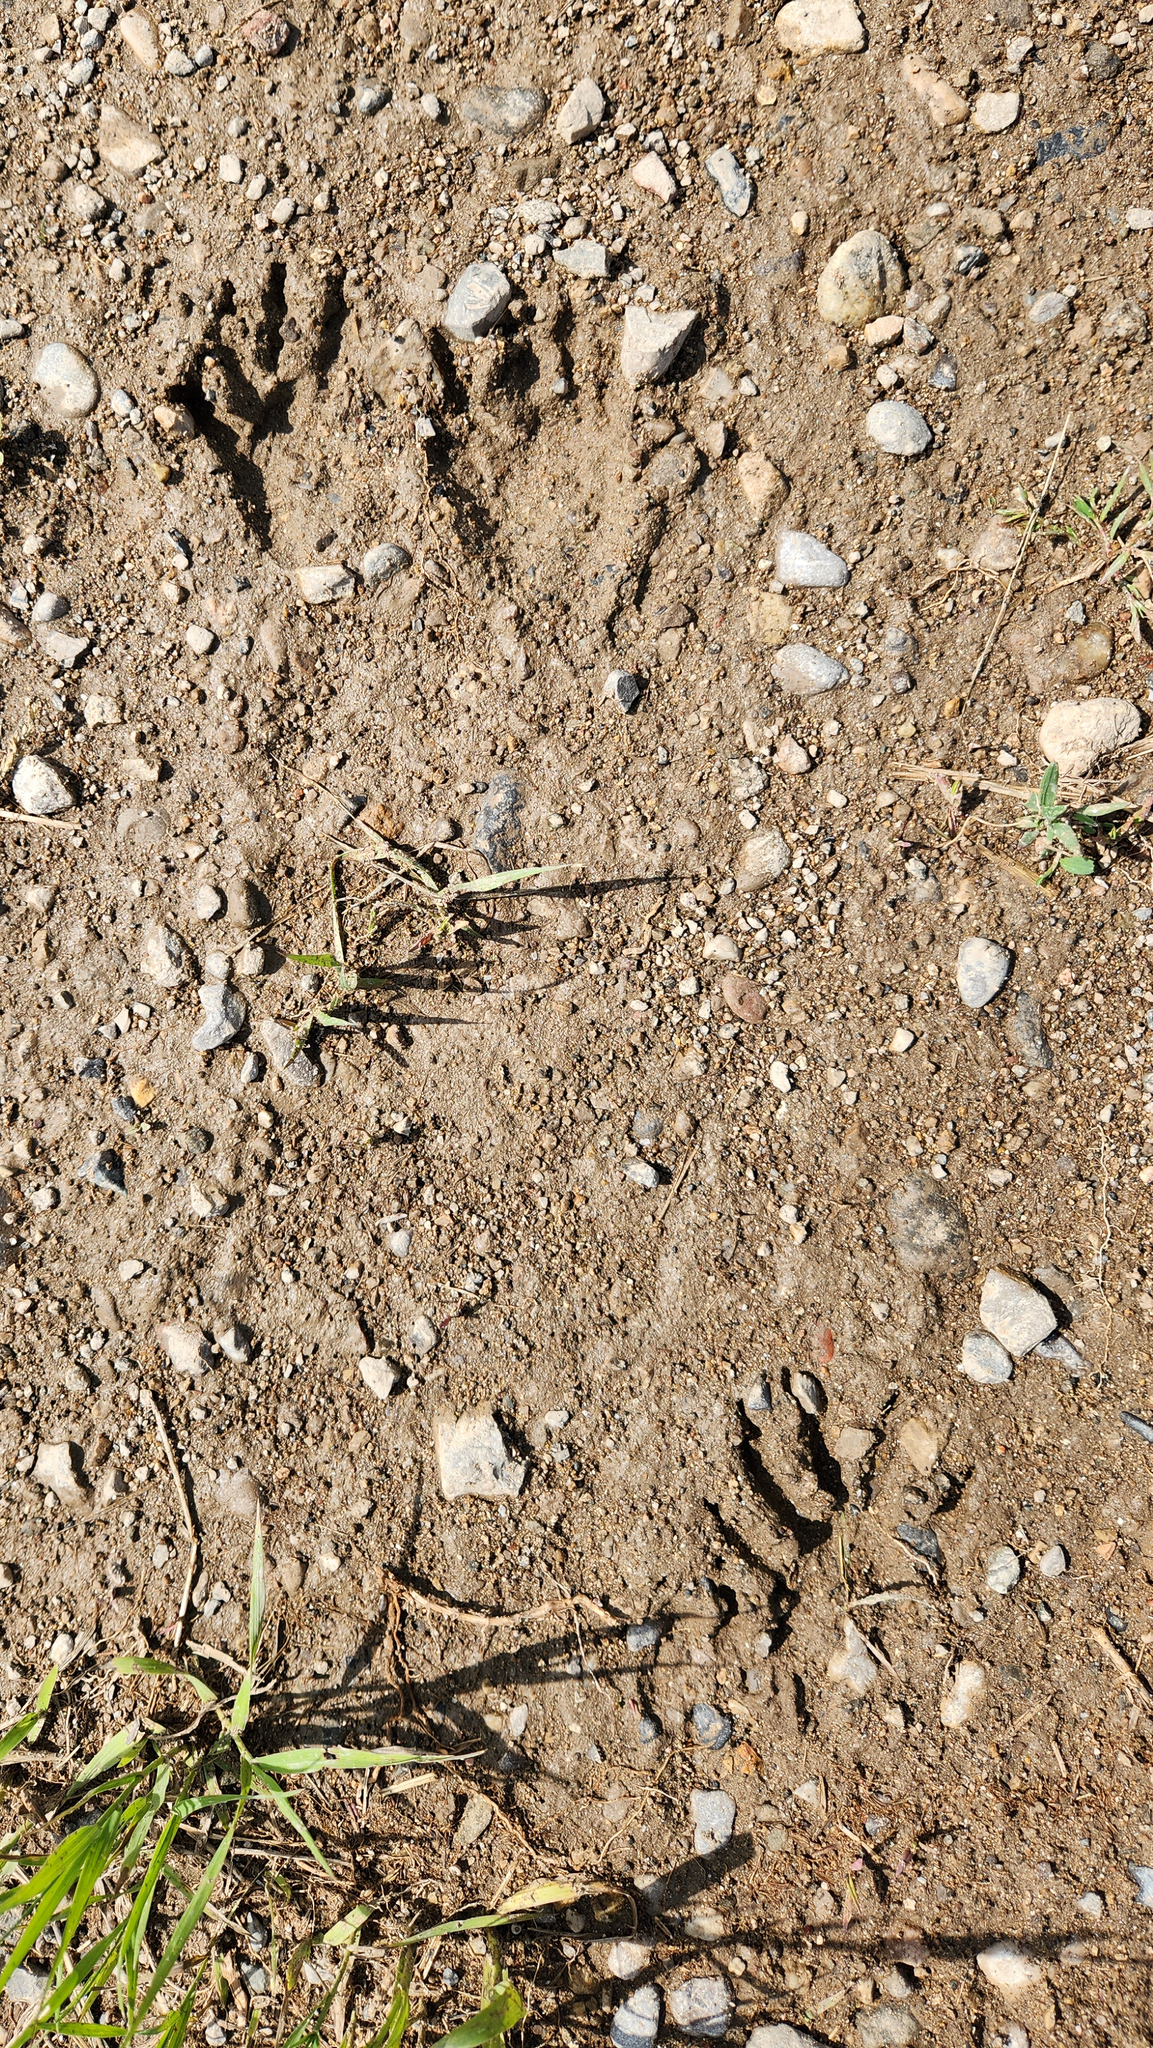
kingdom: Animalia
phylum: Chordata
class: Mammalia
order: Carnivora
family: Procyonidae
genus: Procyon
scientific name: Procyon lotor
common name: Raccoon
